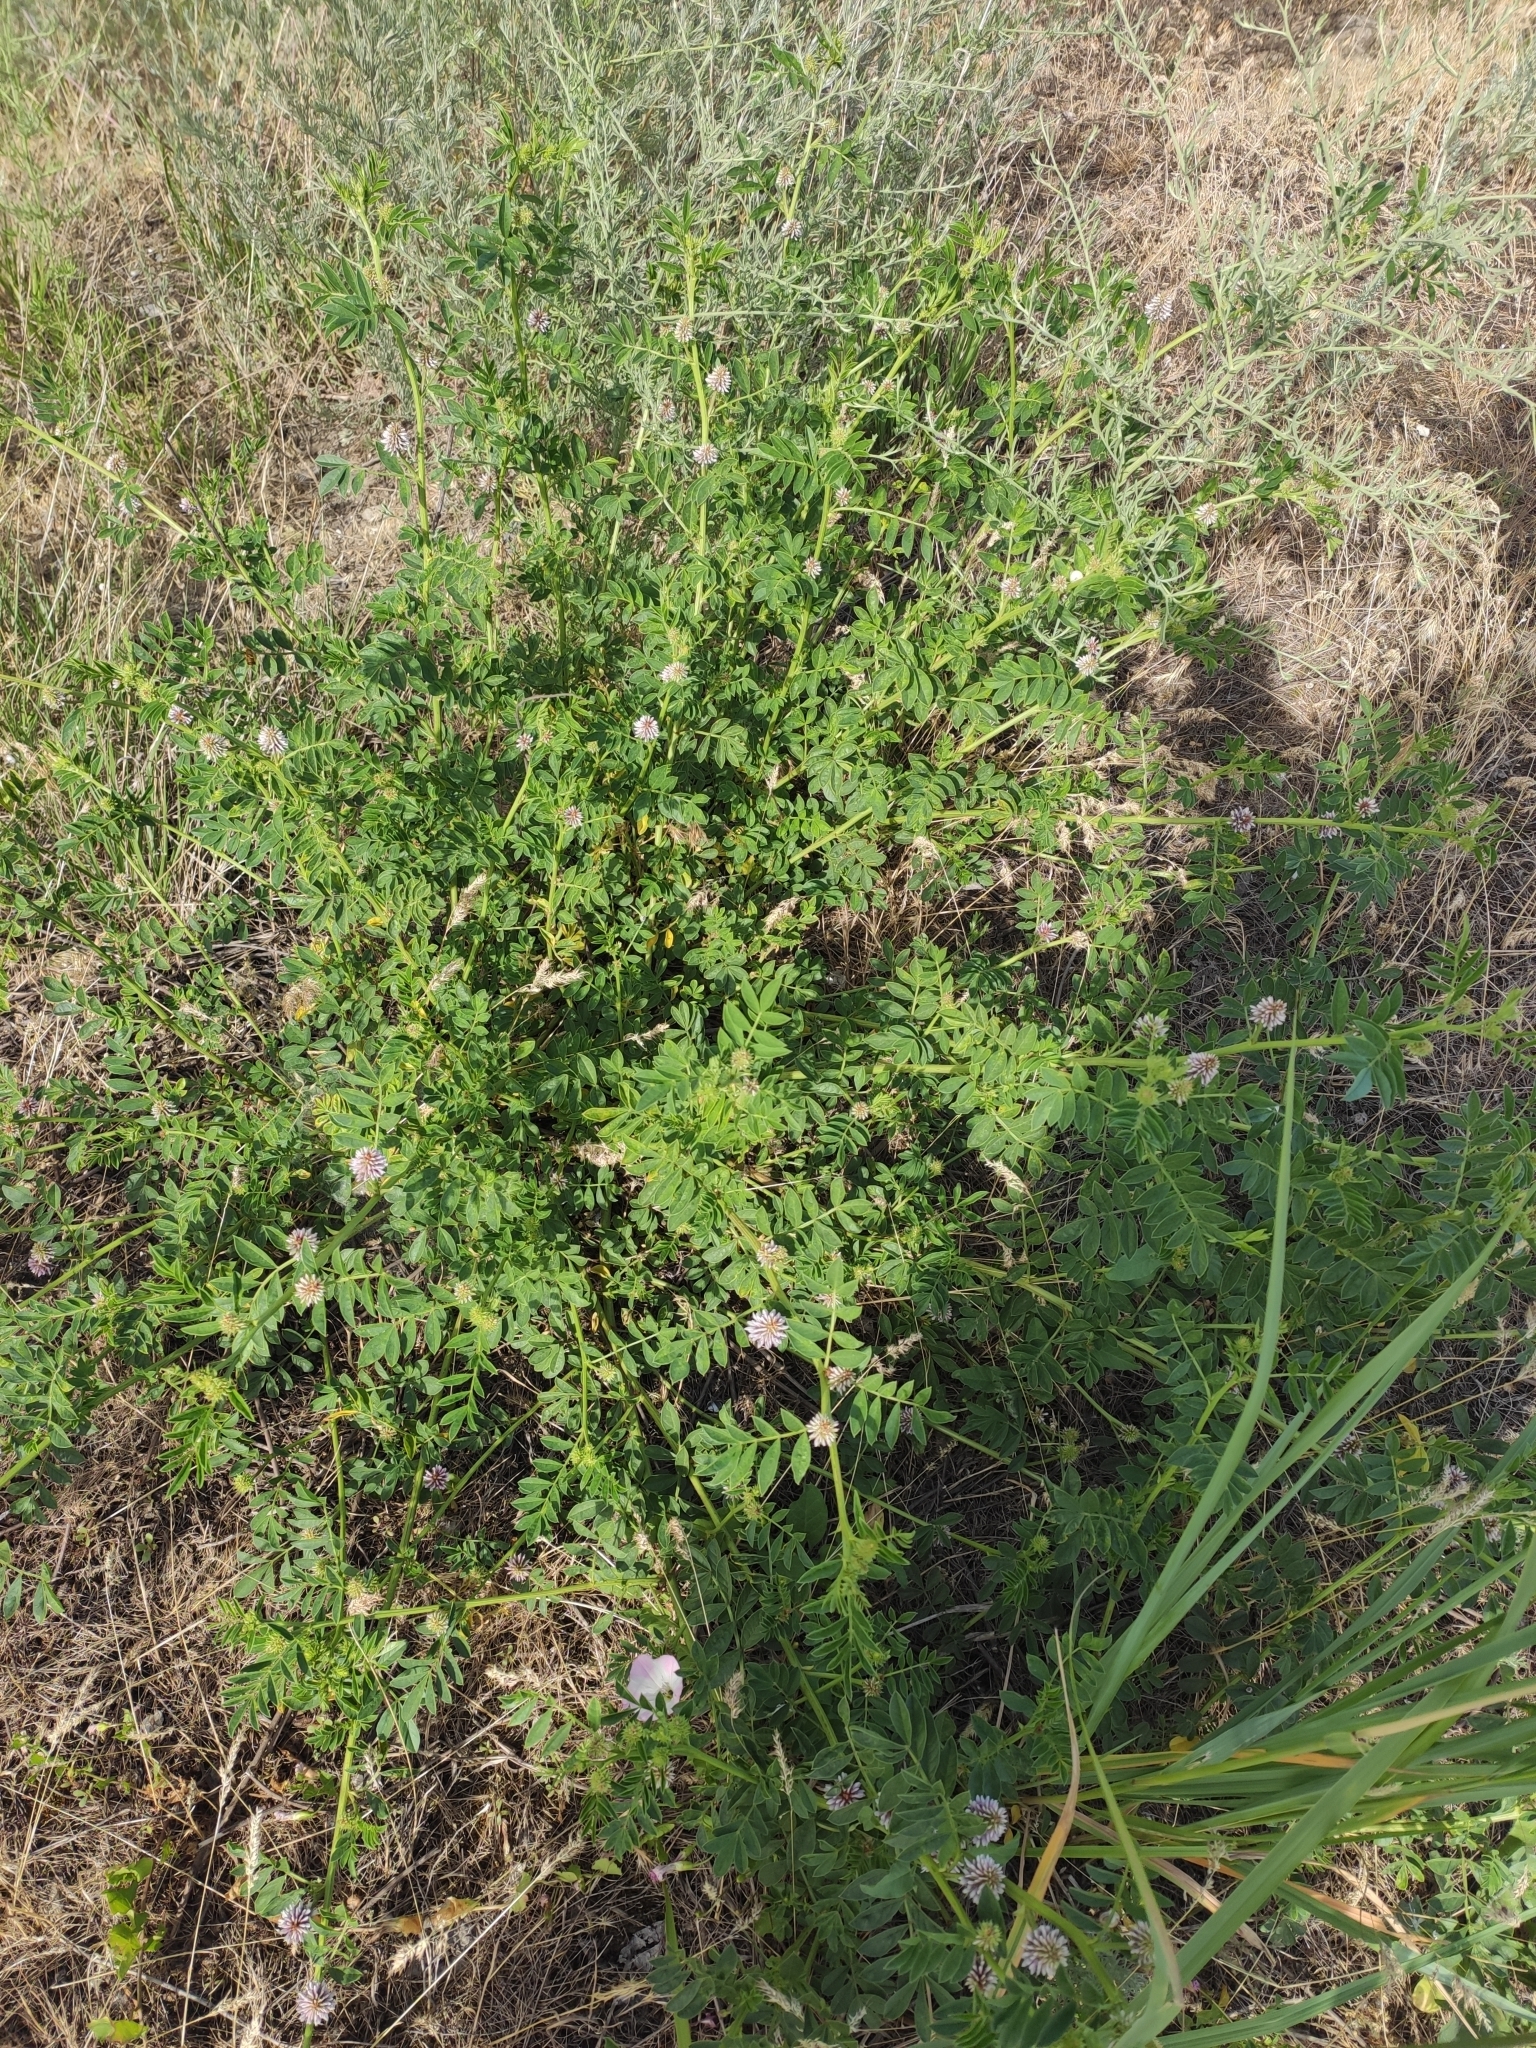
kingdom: Plantae
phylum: Tracheophyta
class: Magnoliopsida
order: Fabales
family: Fabaceae
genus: Glycyrrhiza
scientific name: Glycyrrhiza echinata
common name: German liquorice
